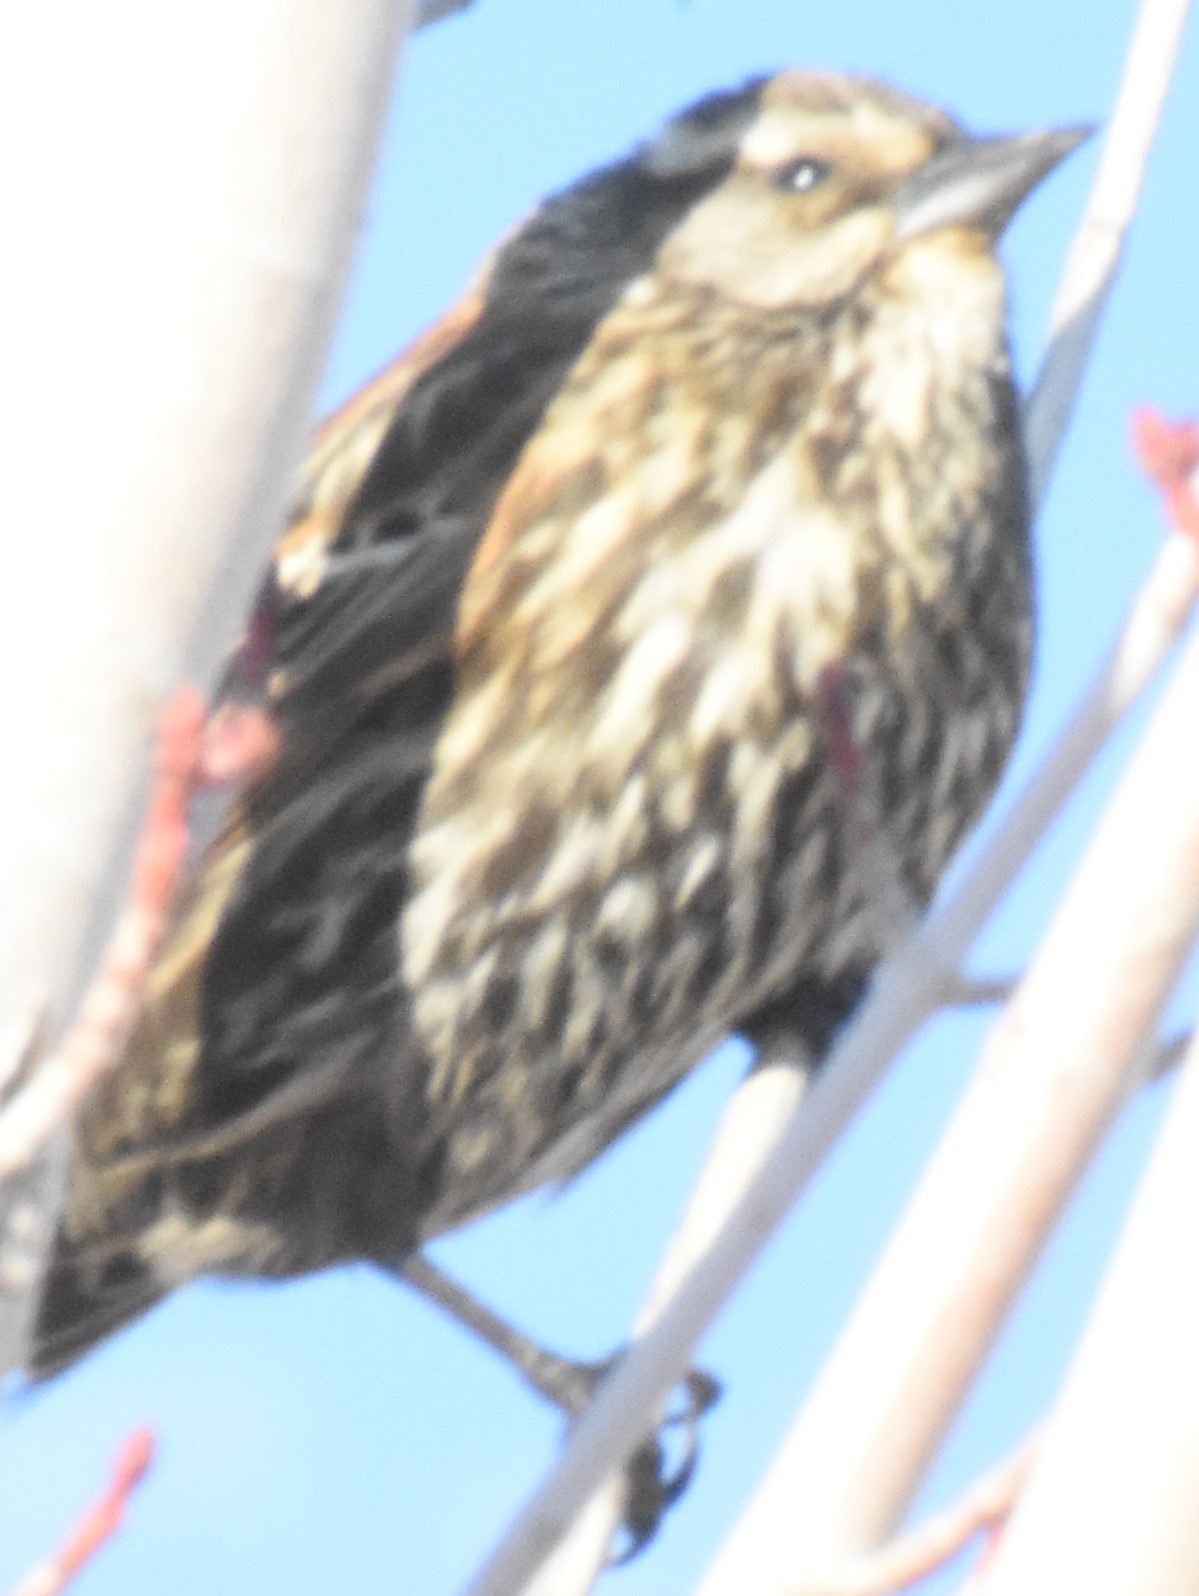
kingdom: Animalia
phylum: Chordata
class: Aves
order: Passeriformes
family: Icteridae
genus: Agelaius
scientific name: Agelaius phoeniceus
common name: Red-winged blackbird
